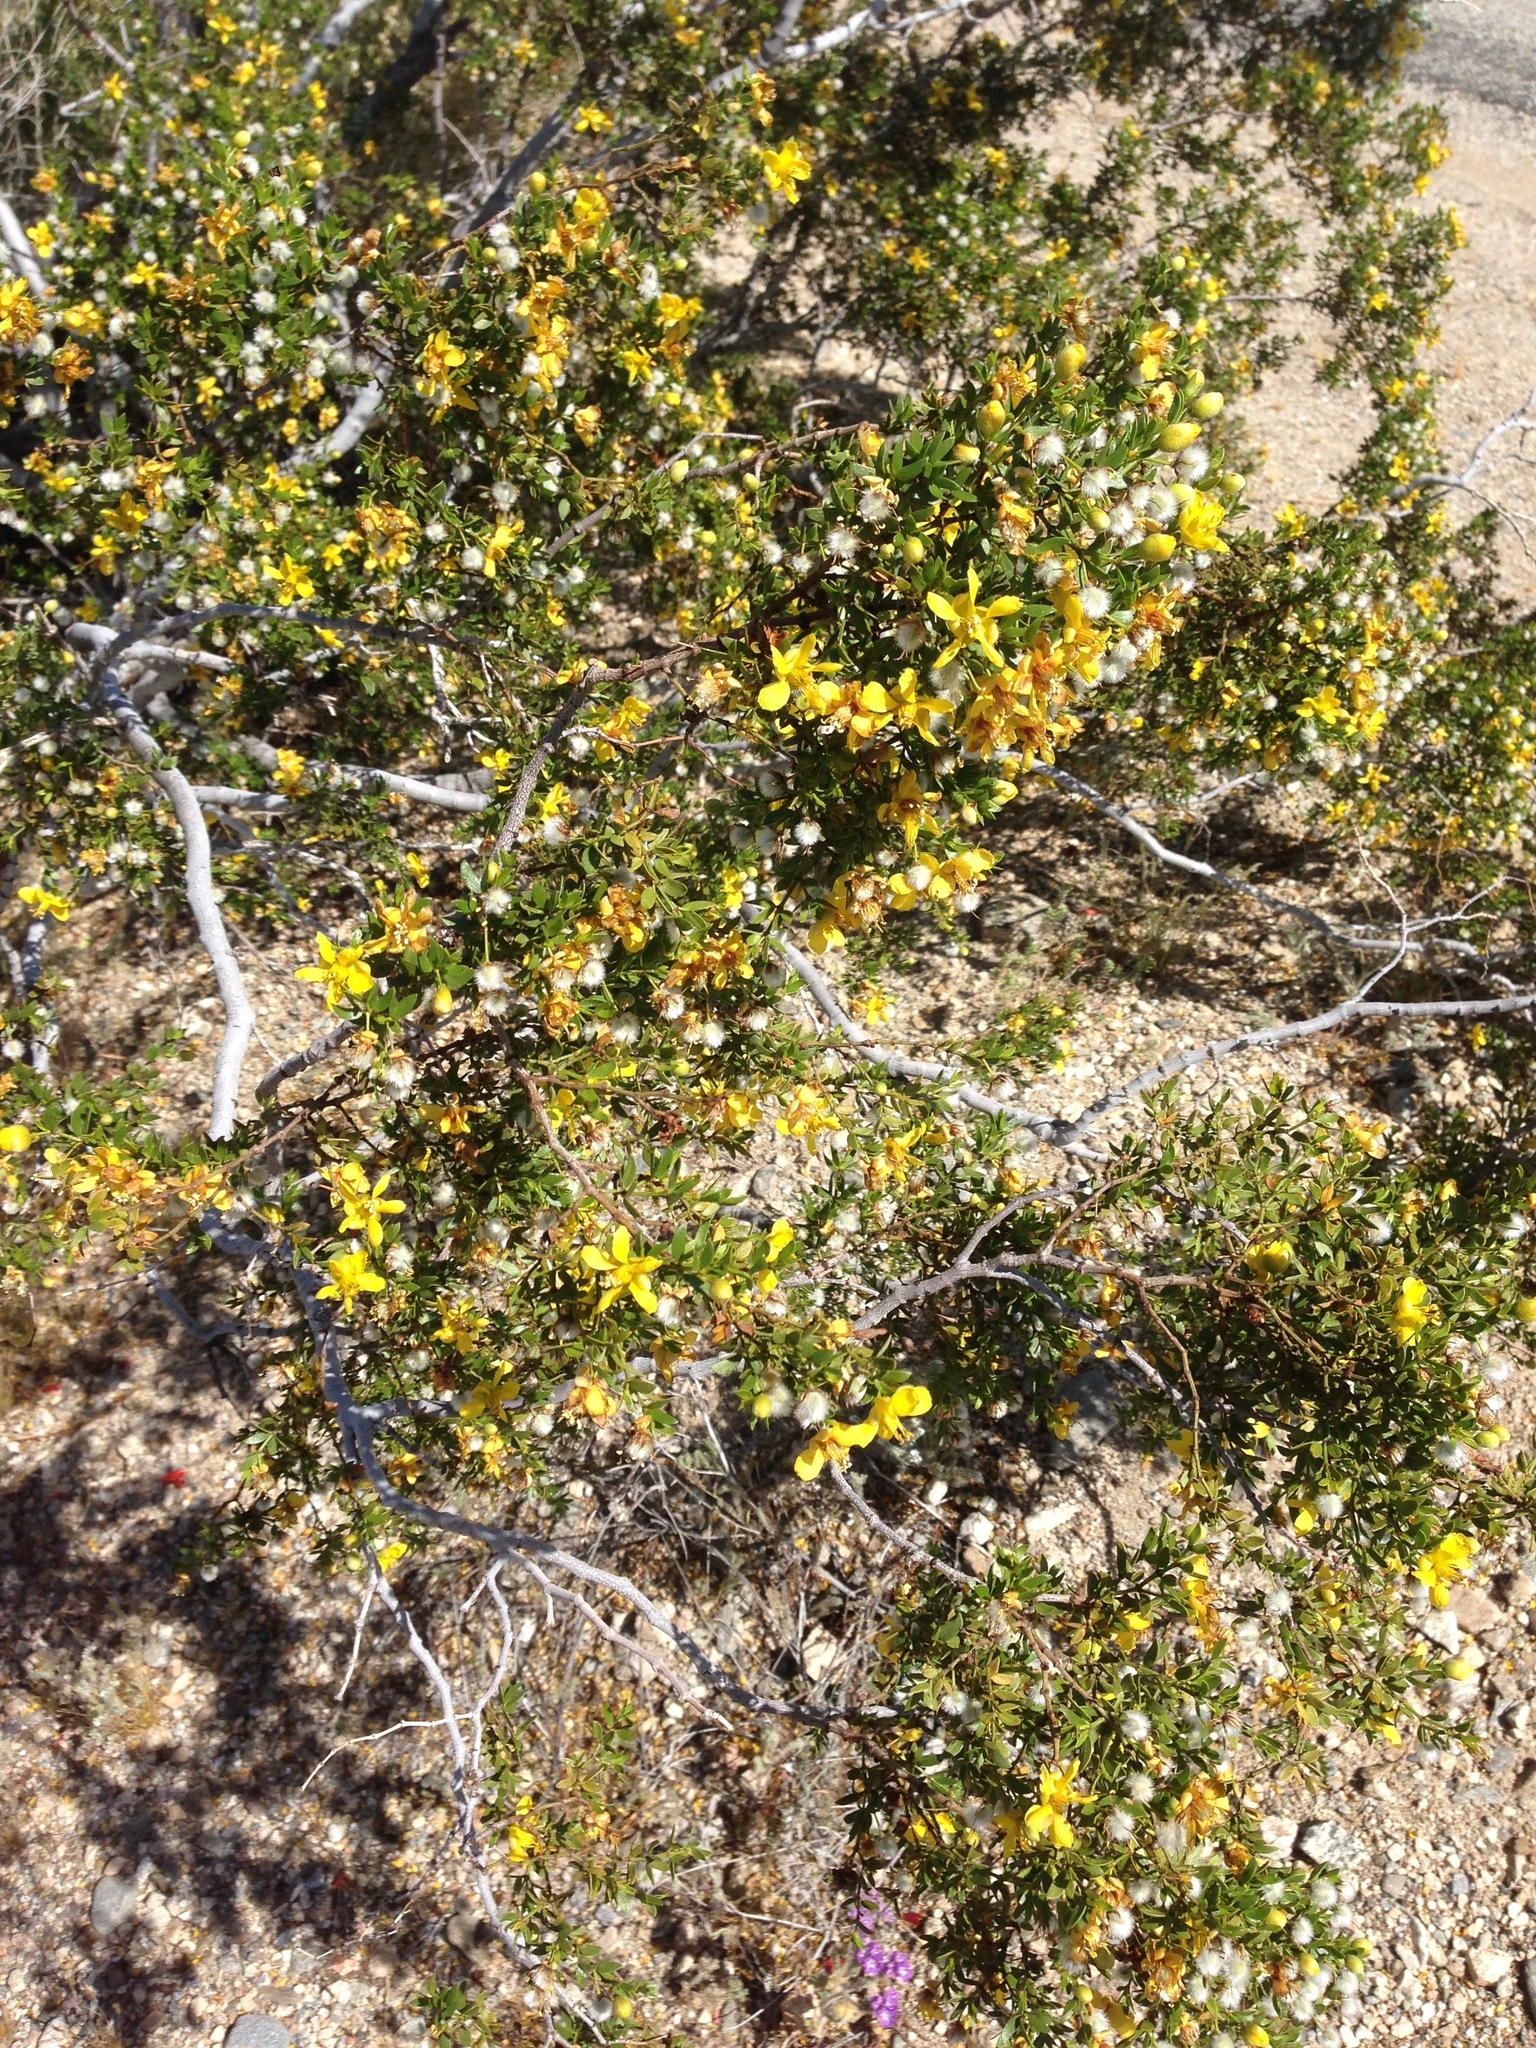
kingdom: Plantae
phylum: Tracheophyta
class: Magnoliopsida
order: Zygophyllales
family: Zygophyllaceae
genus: Larrea
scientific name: Larrea tridentata
